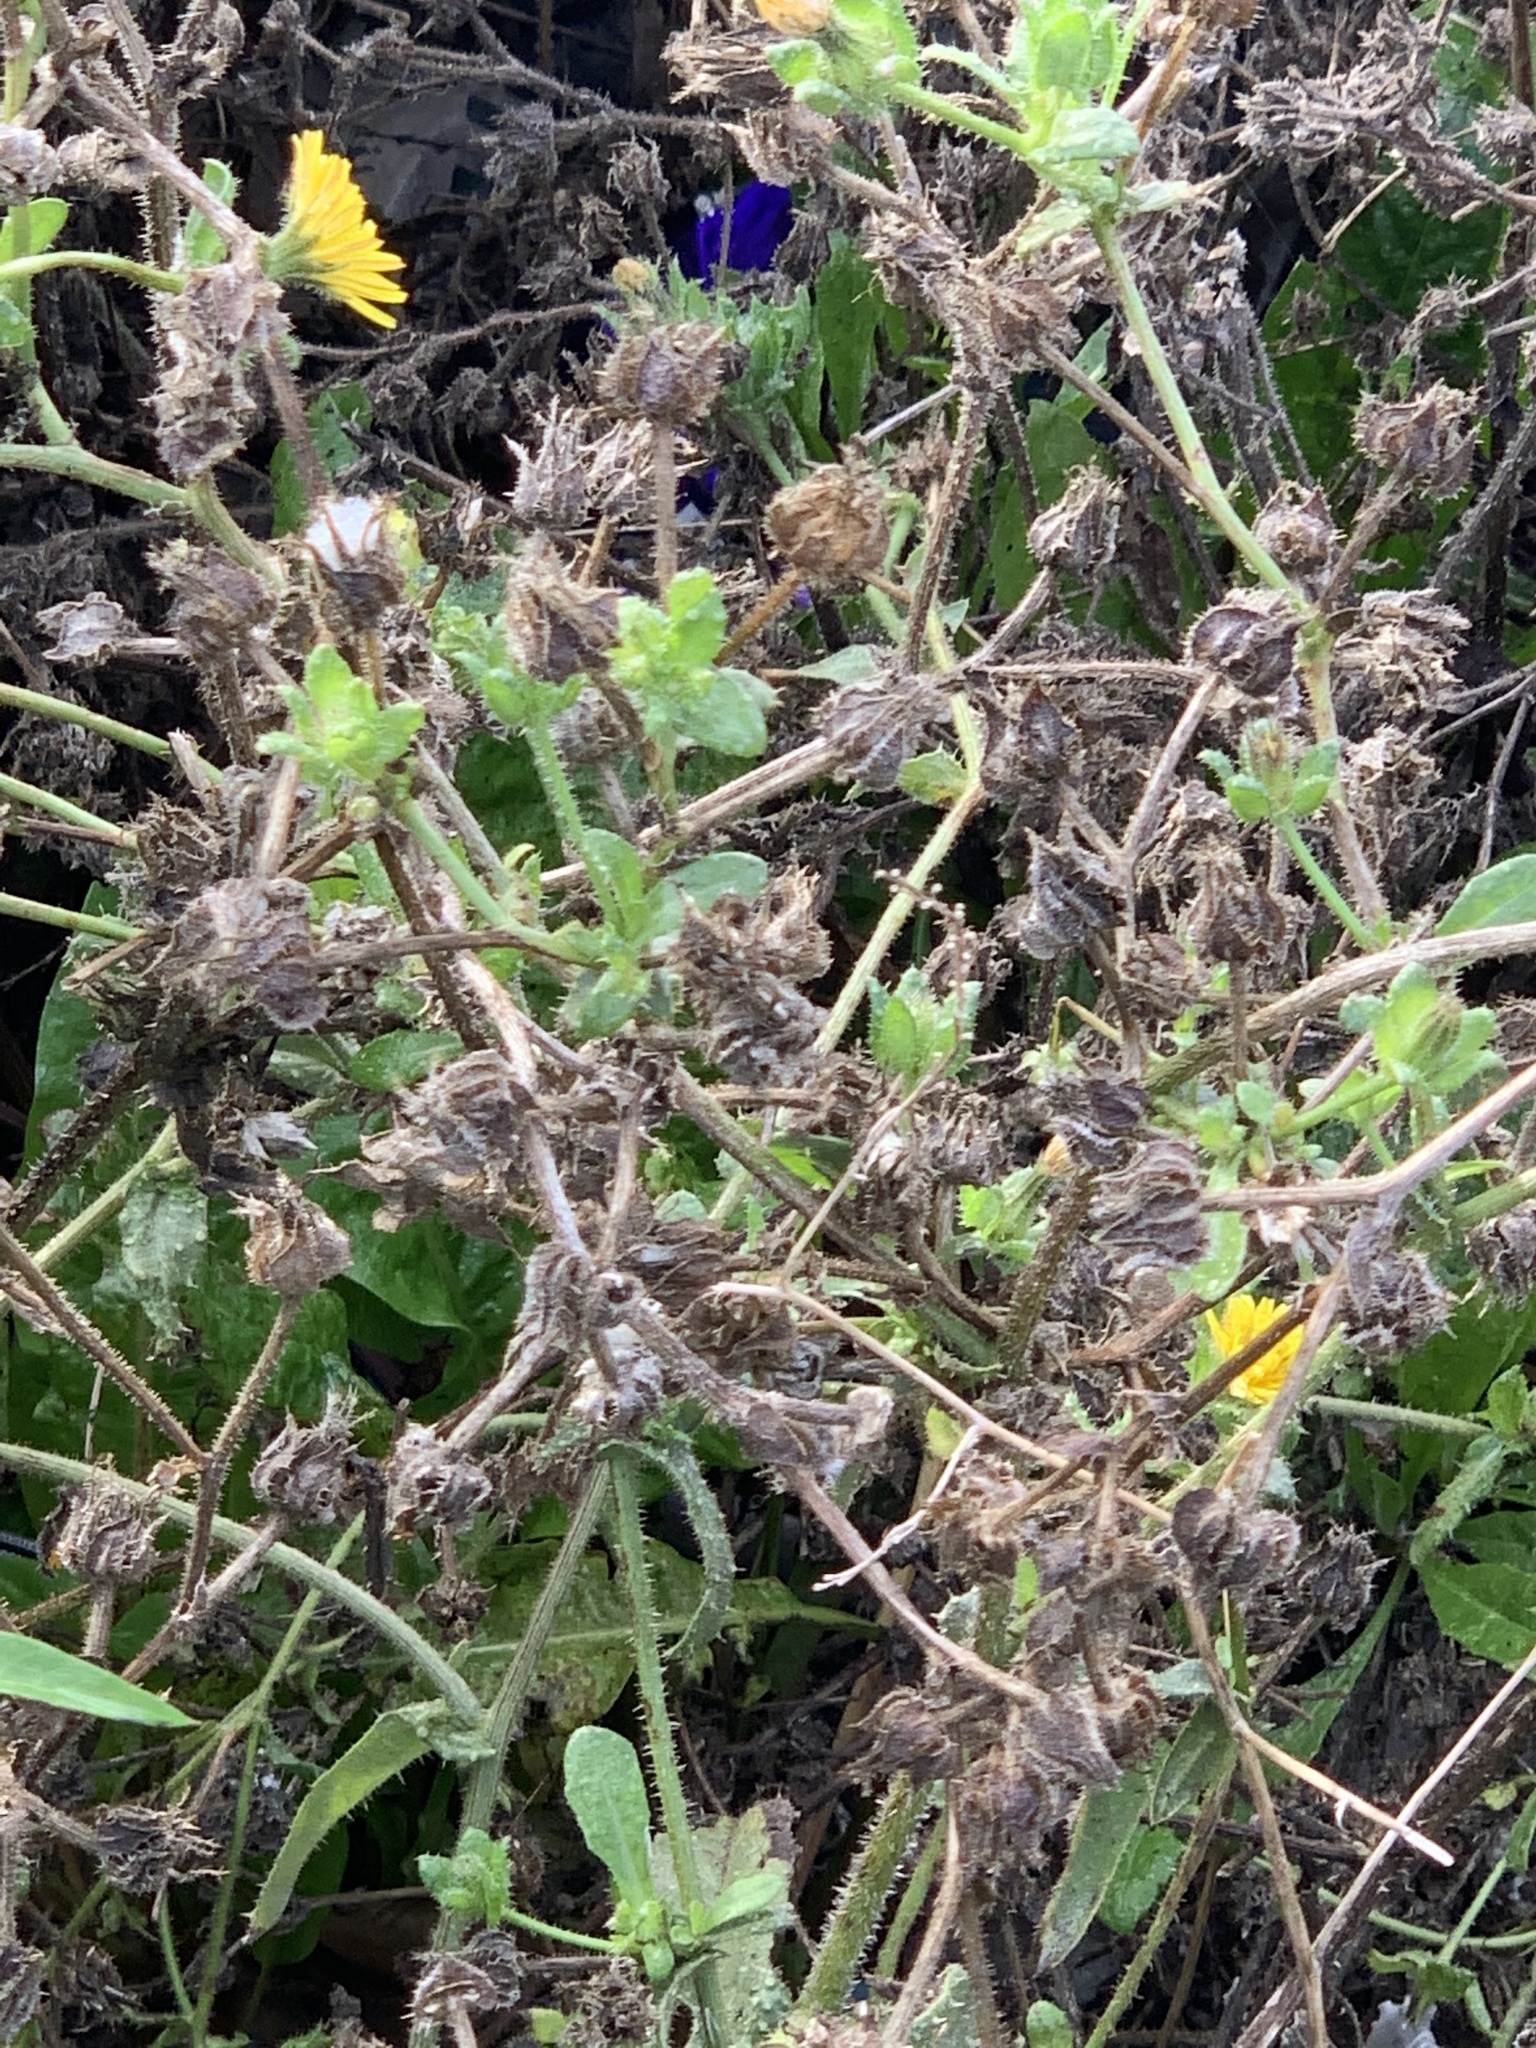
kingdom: Plantae
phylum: Tracheophyta
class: Magnoliopsida
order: Asterales
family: Asteraceae
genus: Helminthotheca
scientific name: Helminthotheca echioides
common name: Ox-tongue
